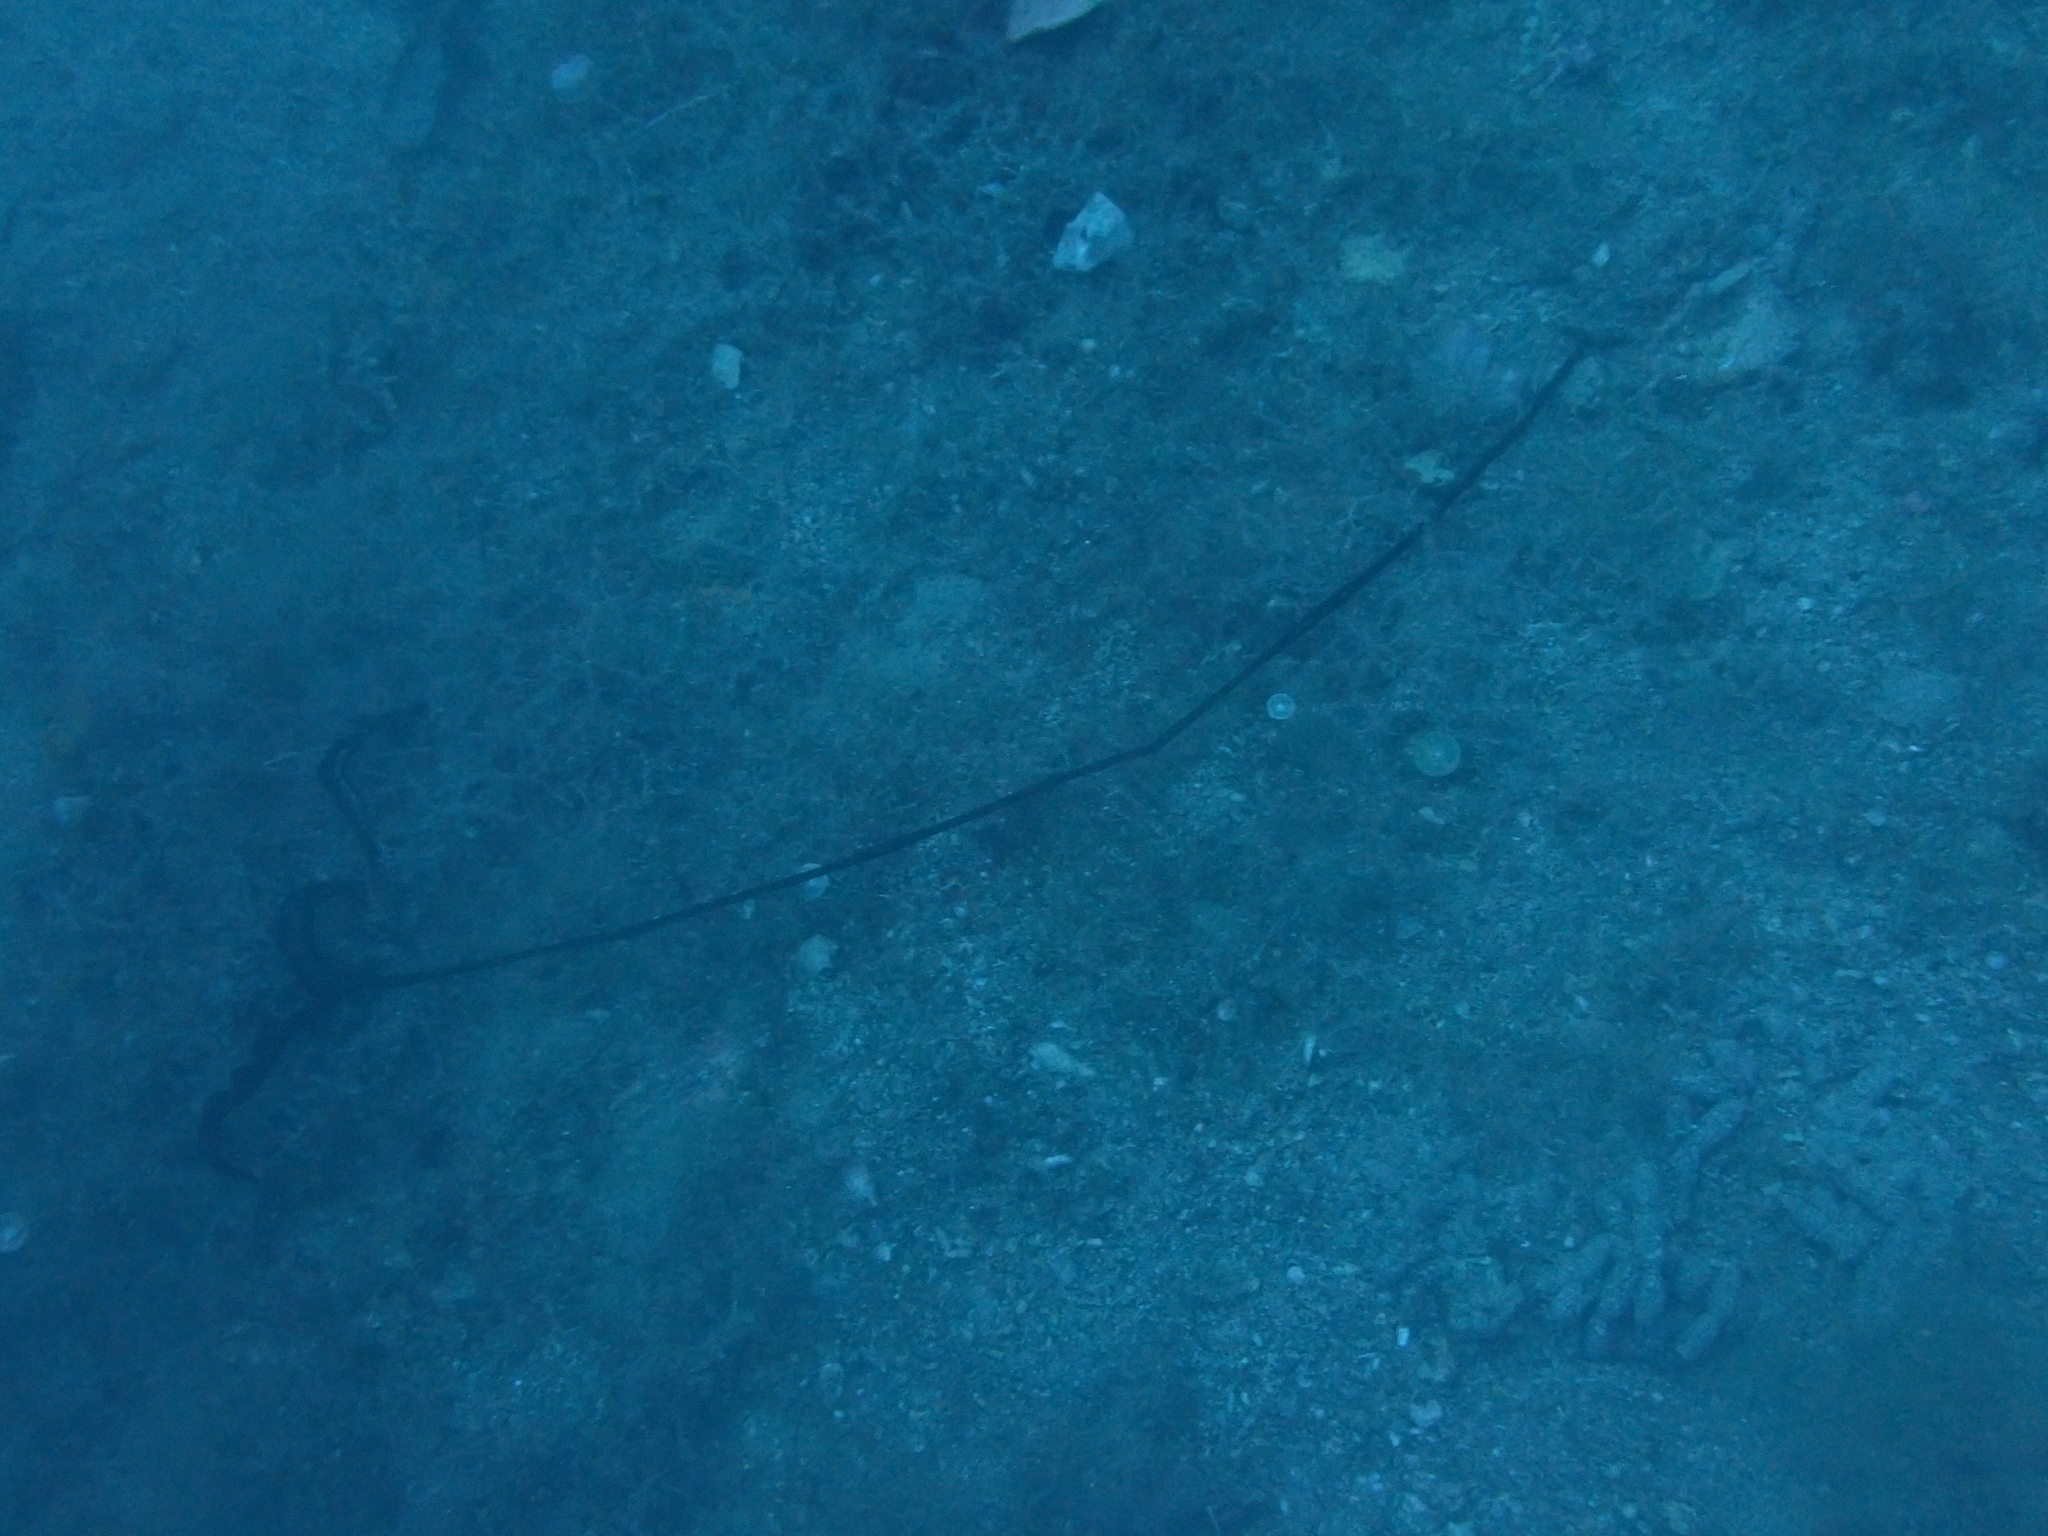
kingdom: Animalia
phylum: Annelida
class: Polychaeta
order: Echiuroidea
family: Bonelliidae
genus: Bonellia
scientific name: Bonellia viridis
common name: Green spoon worm
